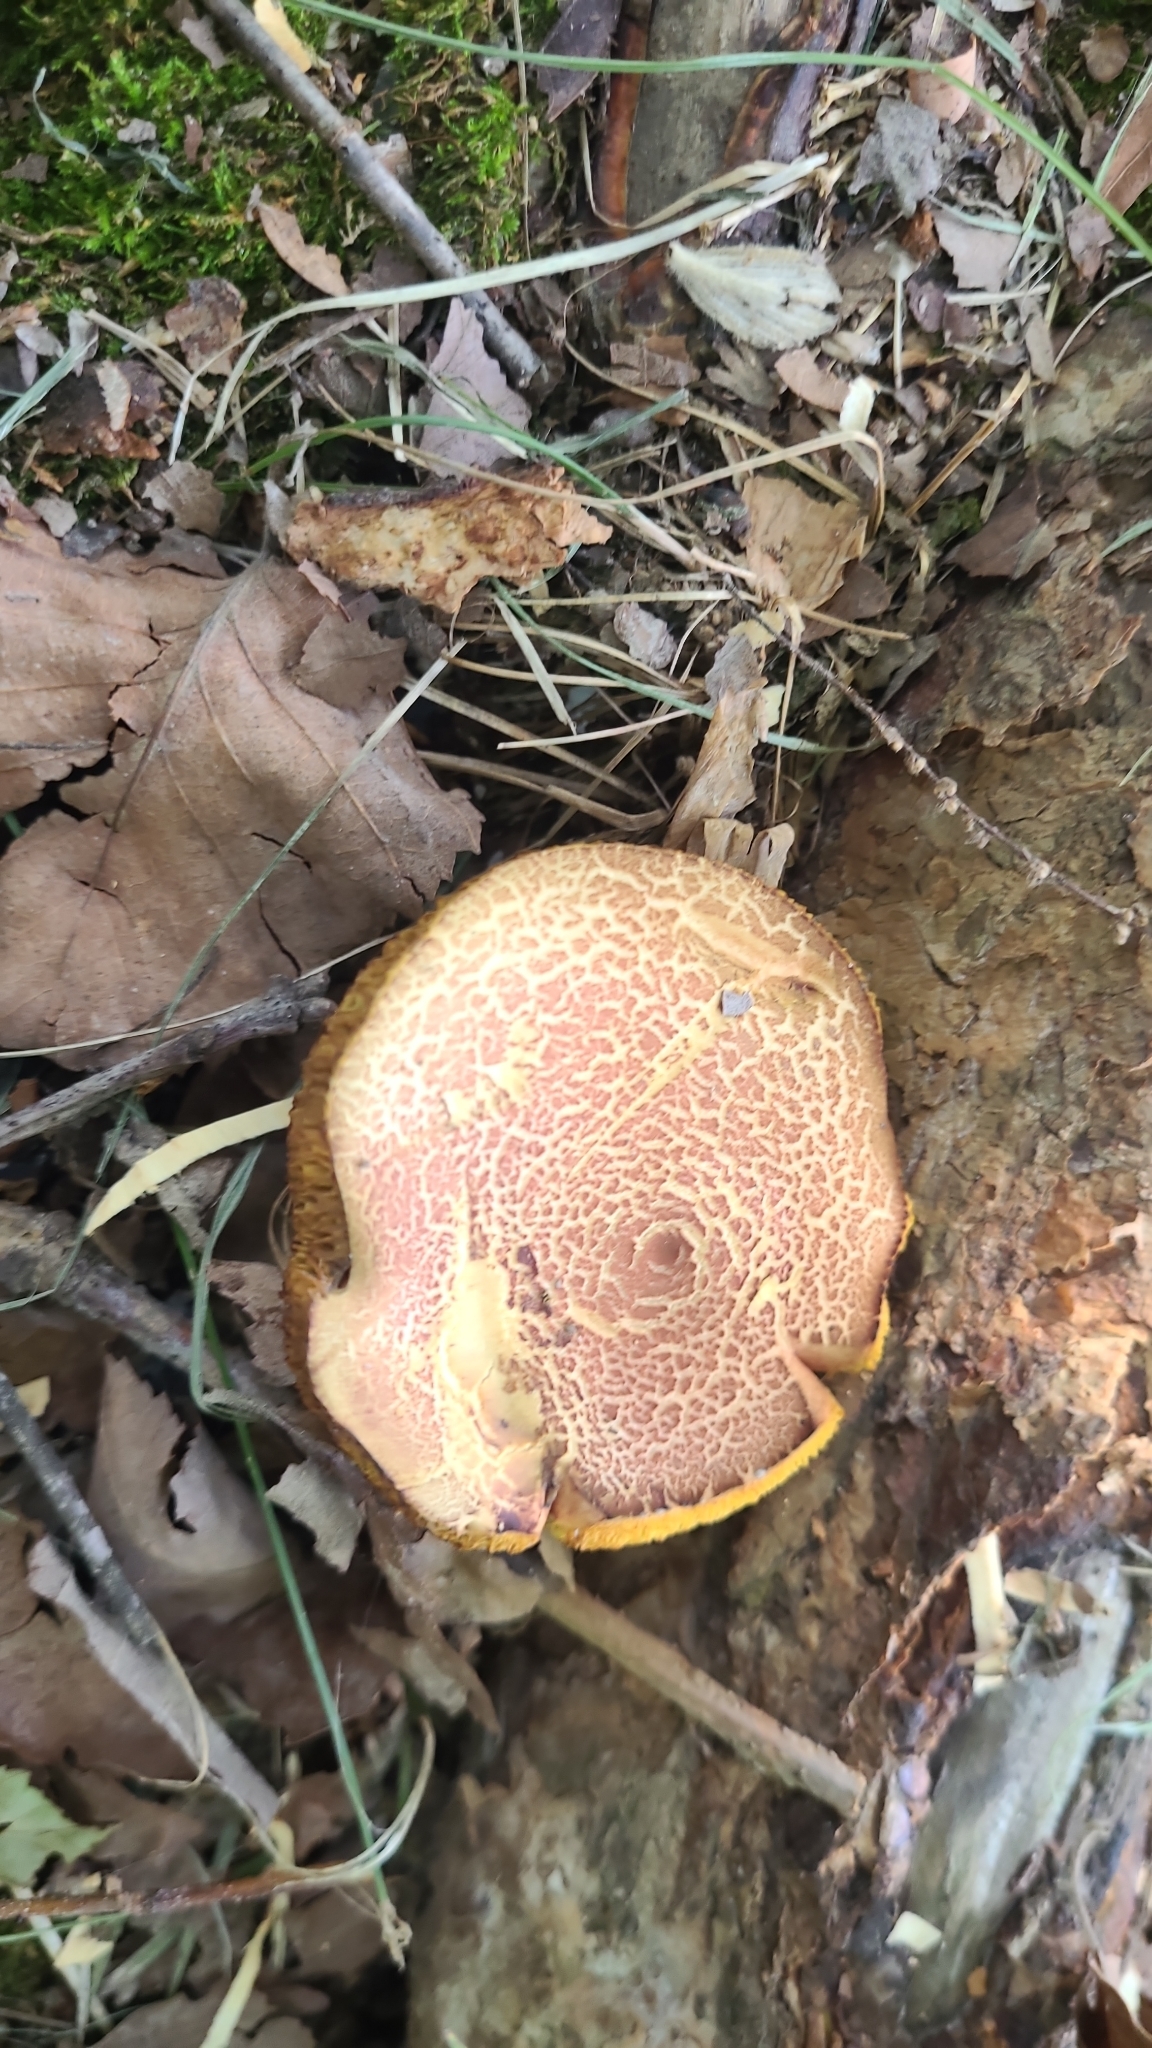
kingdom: Fungi
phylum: Basidiomycota
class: Agaricomycetes
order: Boletales
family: Boletaceae
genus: Xerocomellus
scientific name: Xerocomellus chrysenteron
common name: Red-cracking bolete
